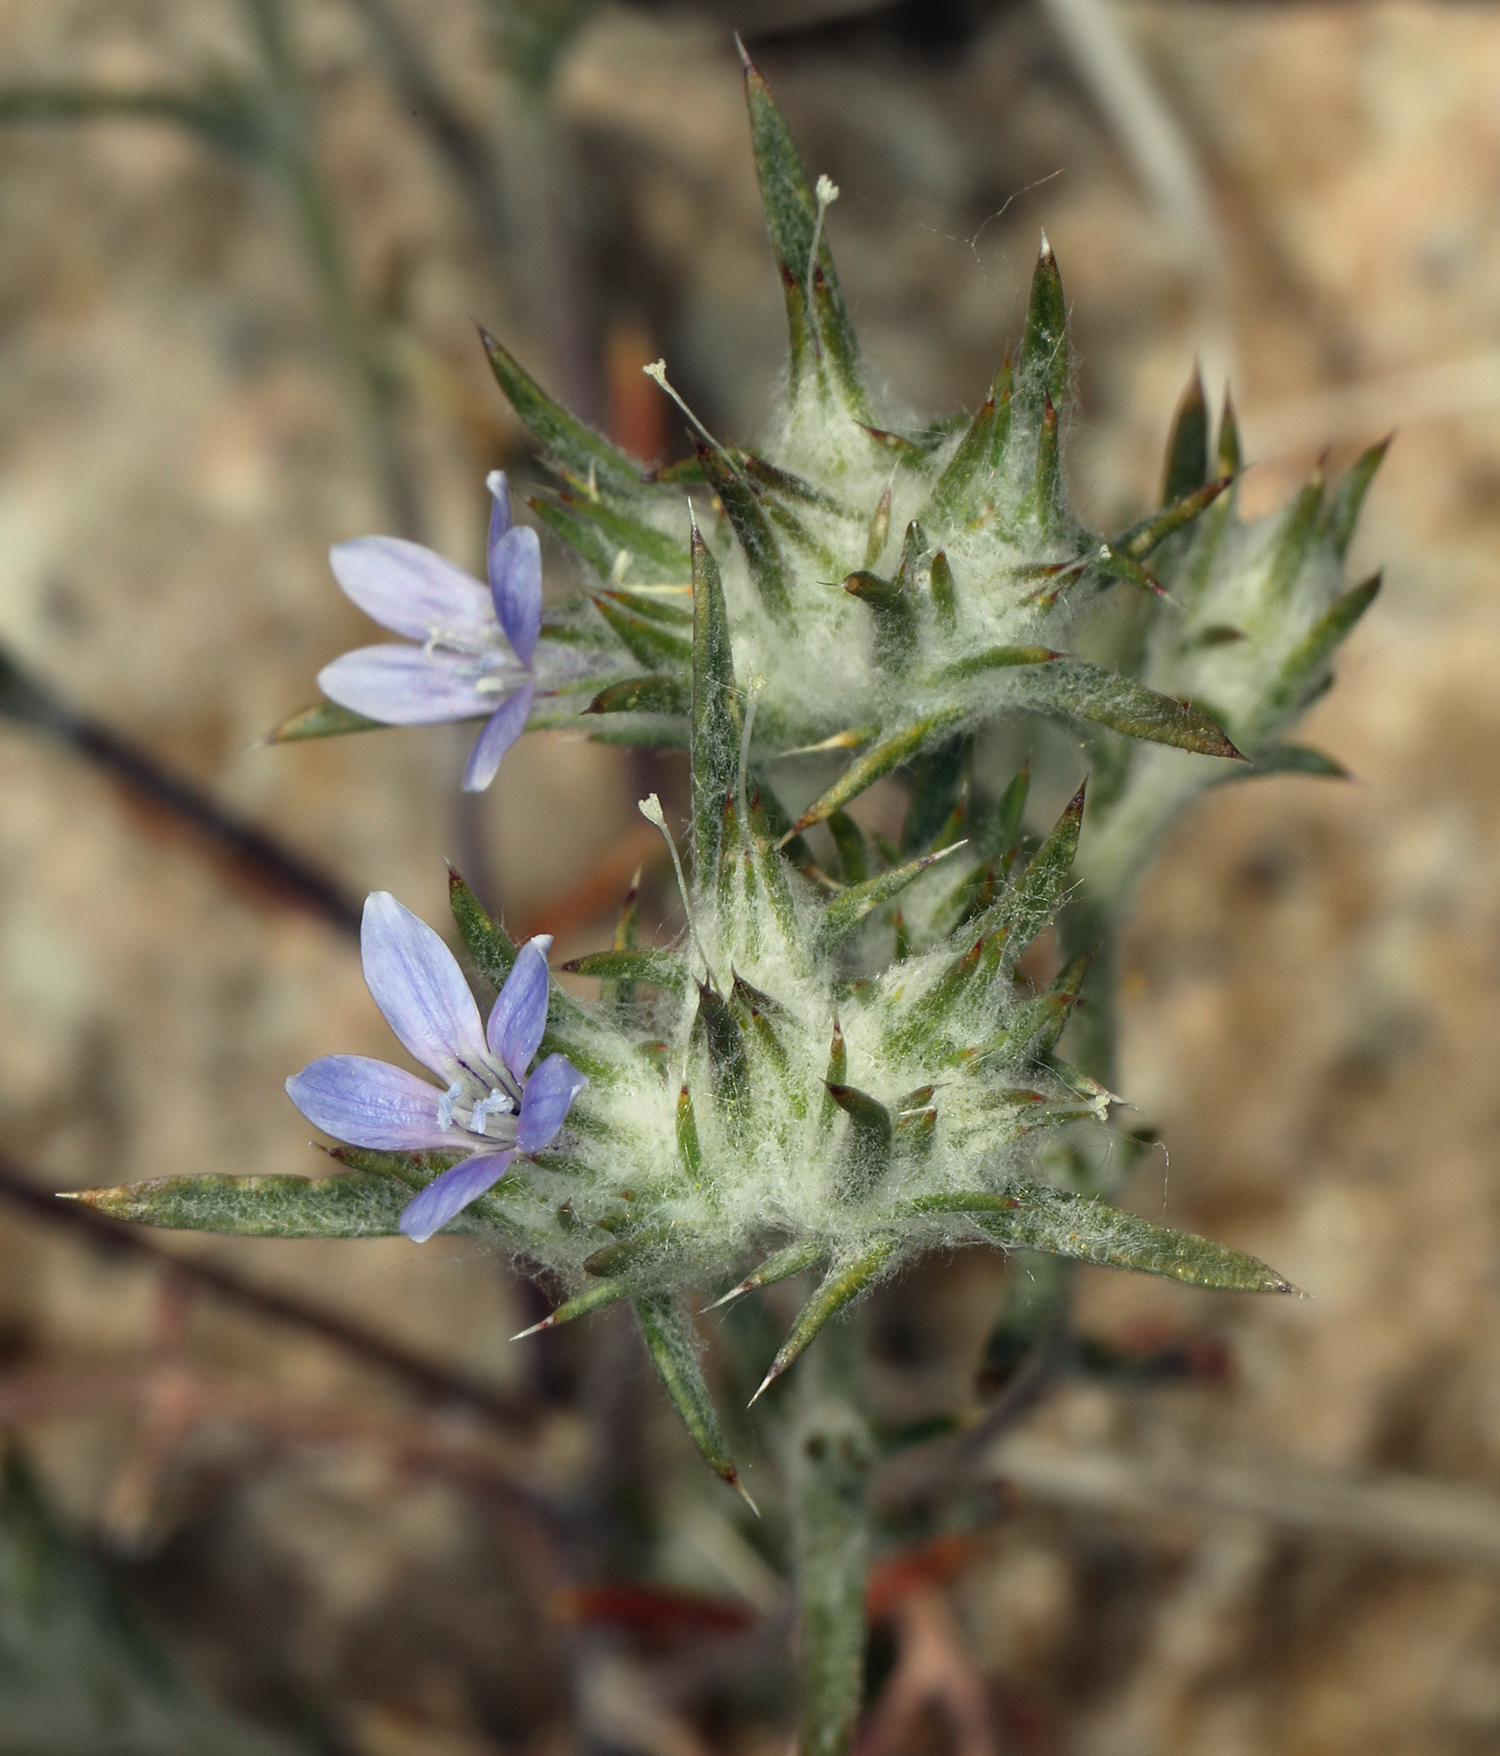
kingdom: Plantae
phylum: Tracheophyta
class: Magnoliopsida
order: Ericales
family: Polemoniaceae
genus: Eriastrum
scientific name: Eriastrum wilcoxii
